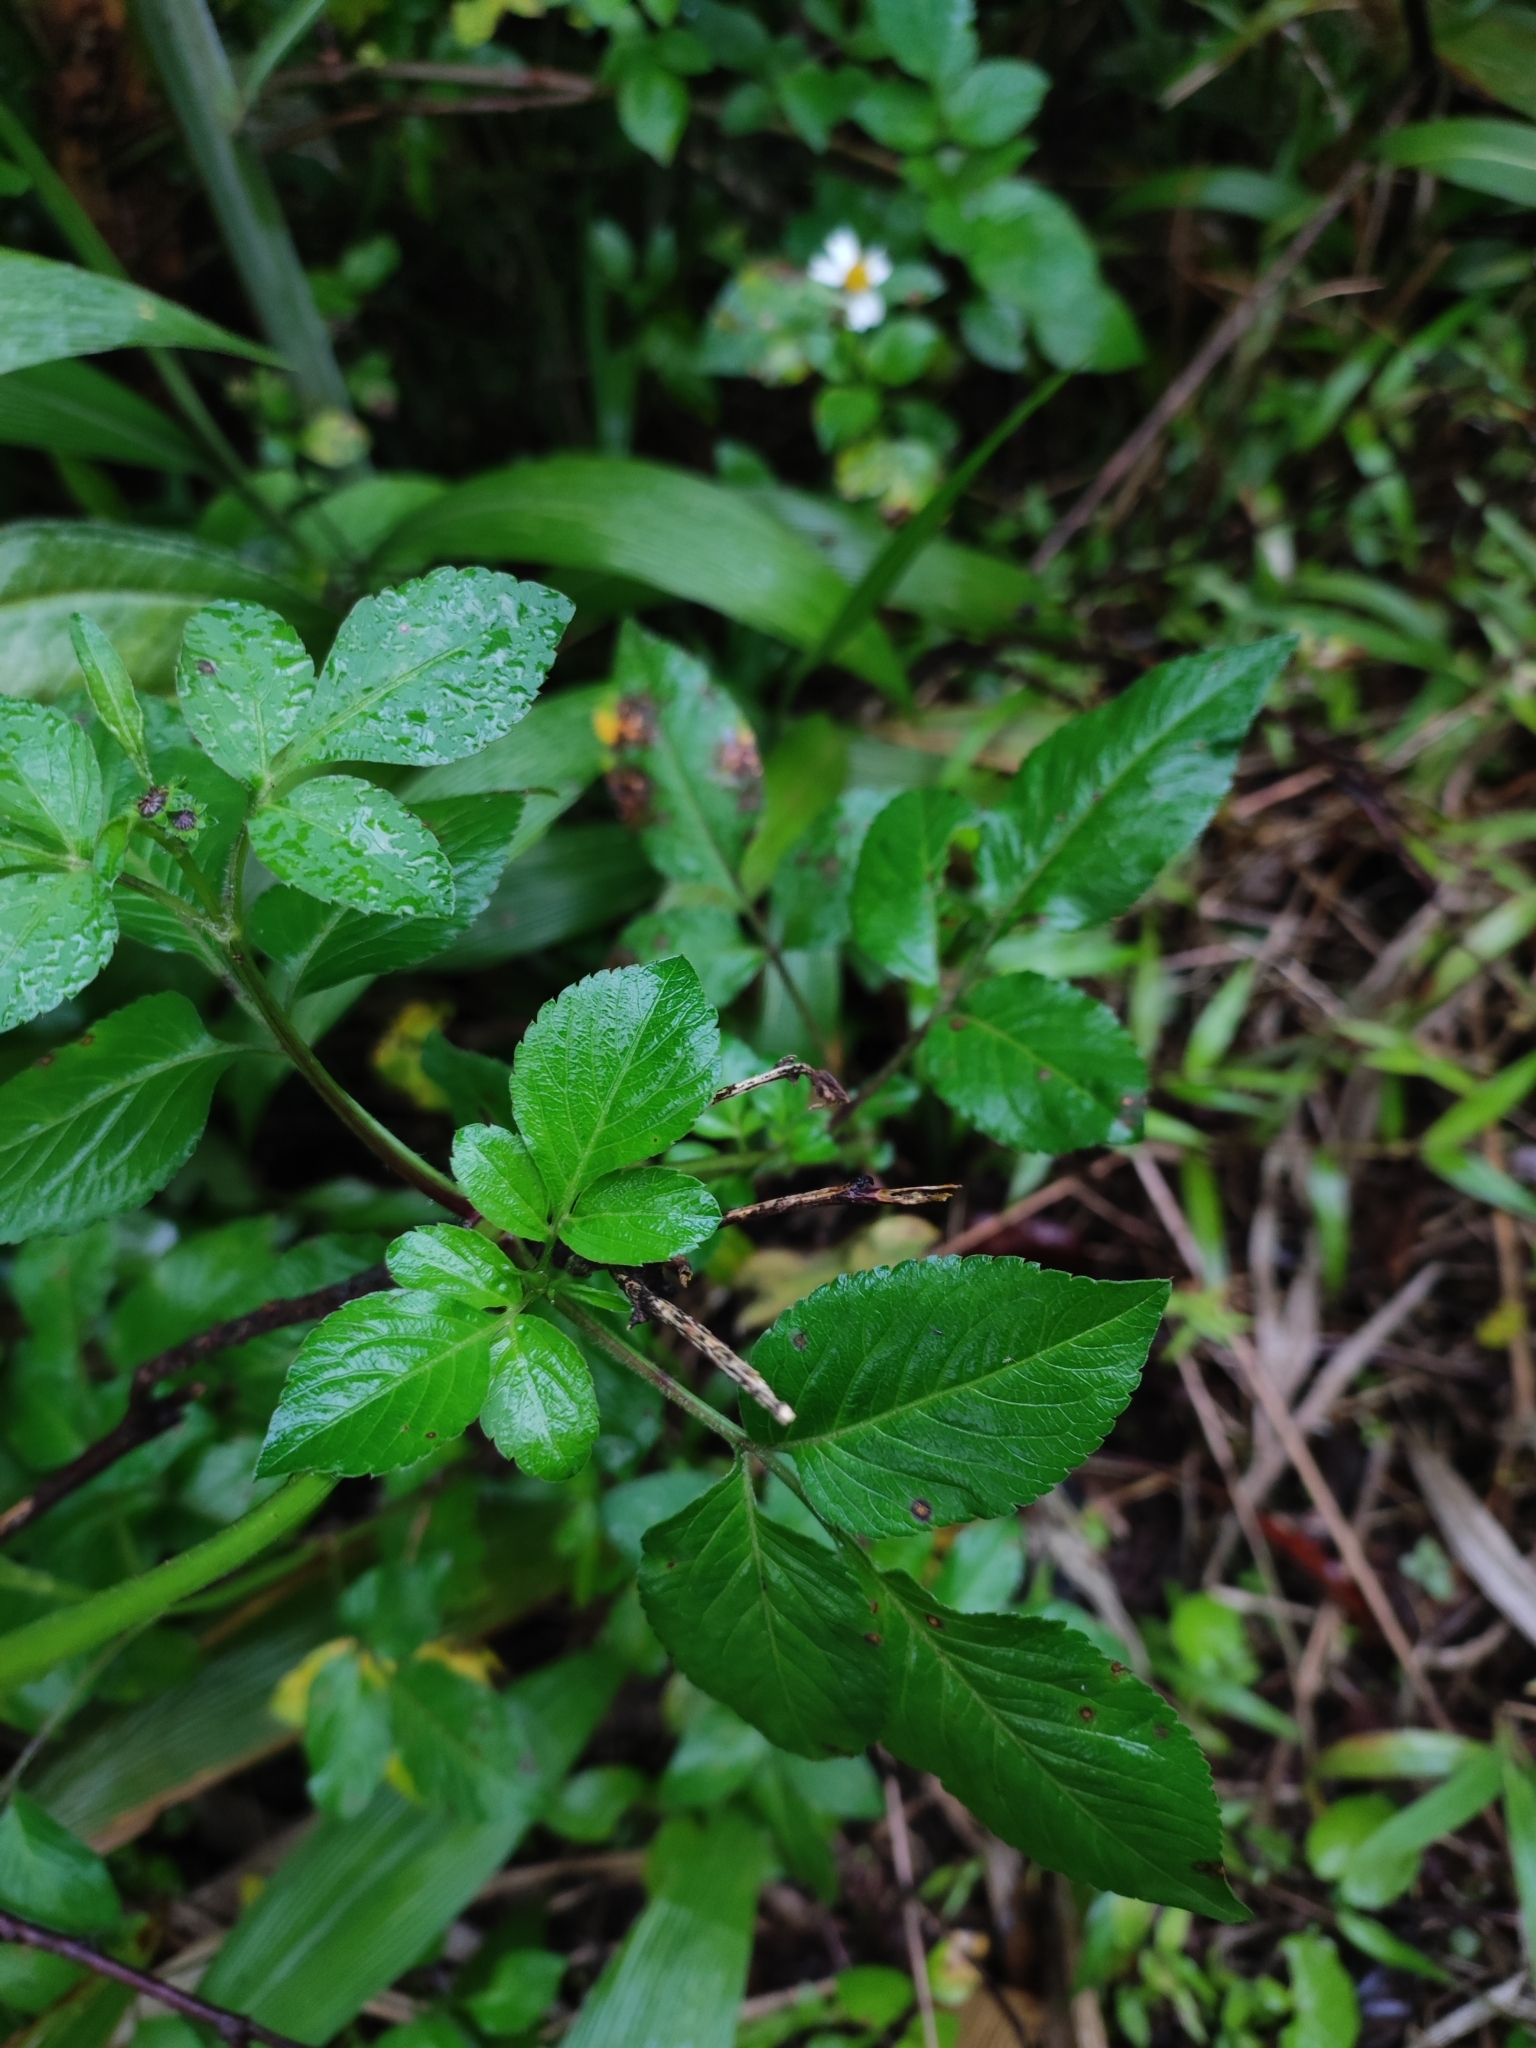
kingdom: Plantae
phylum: Tracheophyta
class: Magnoliopsida
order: Asterales
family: Asteraceae
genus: Bidens
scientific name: Bidens alba
